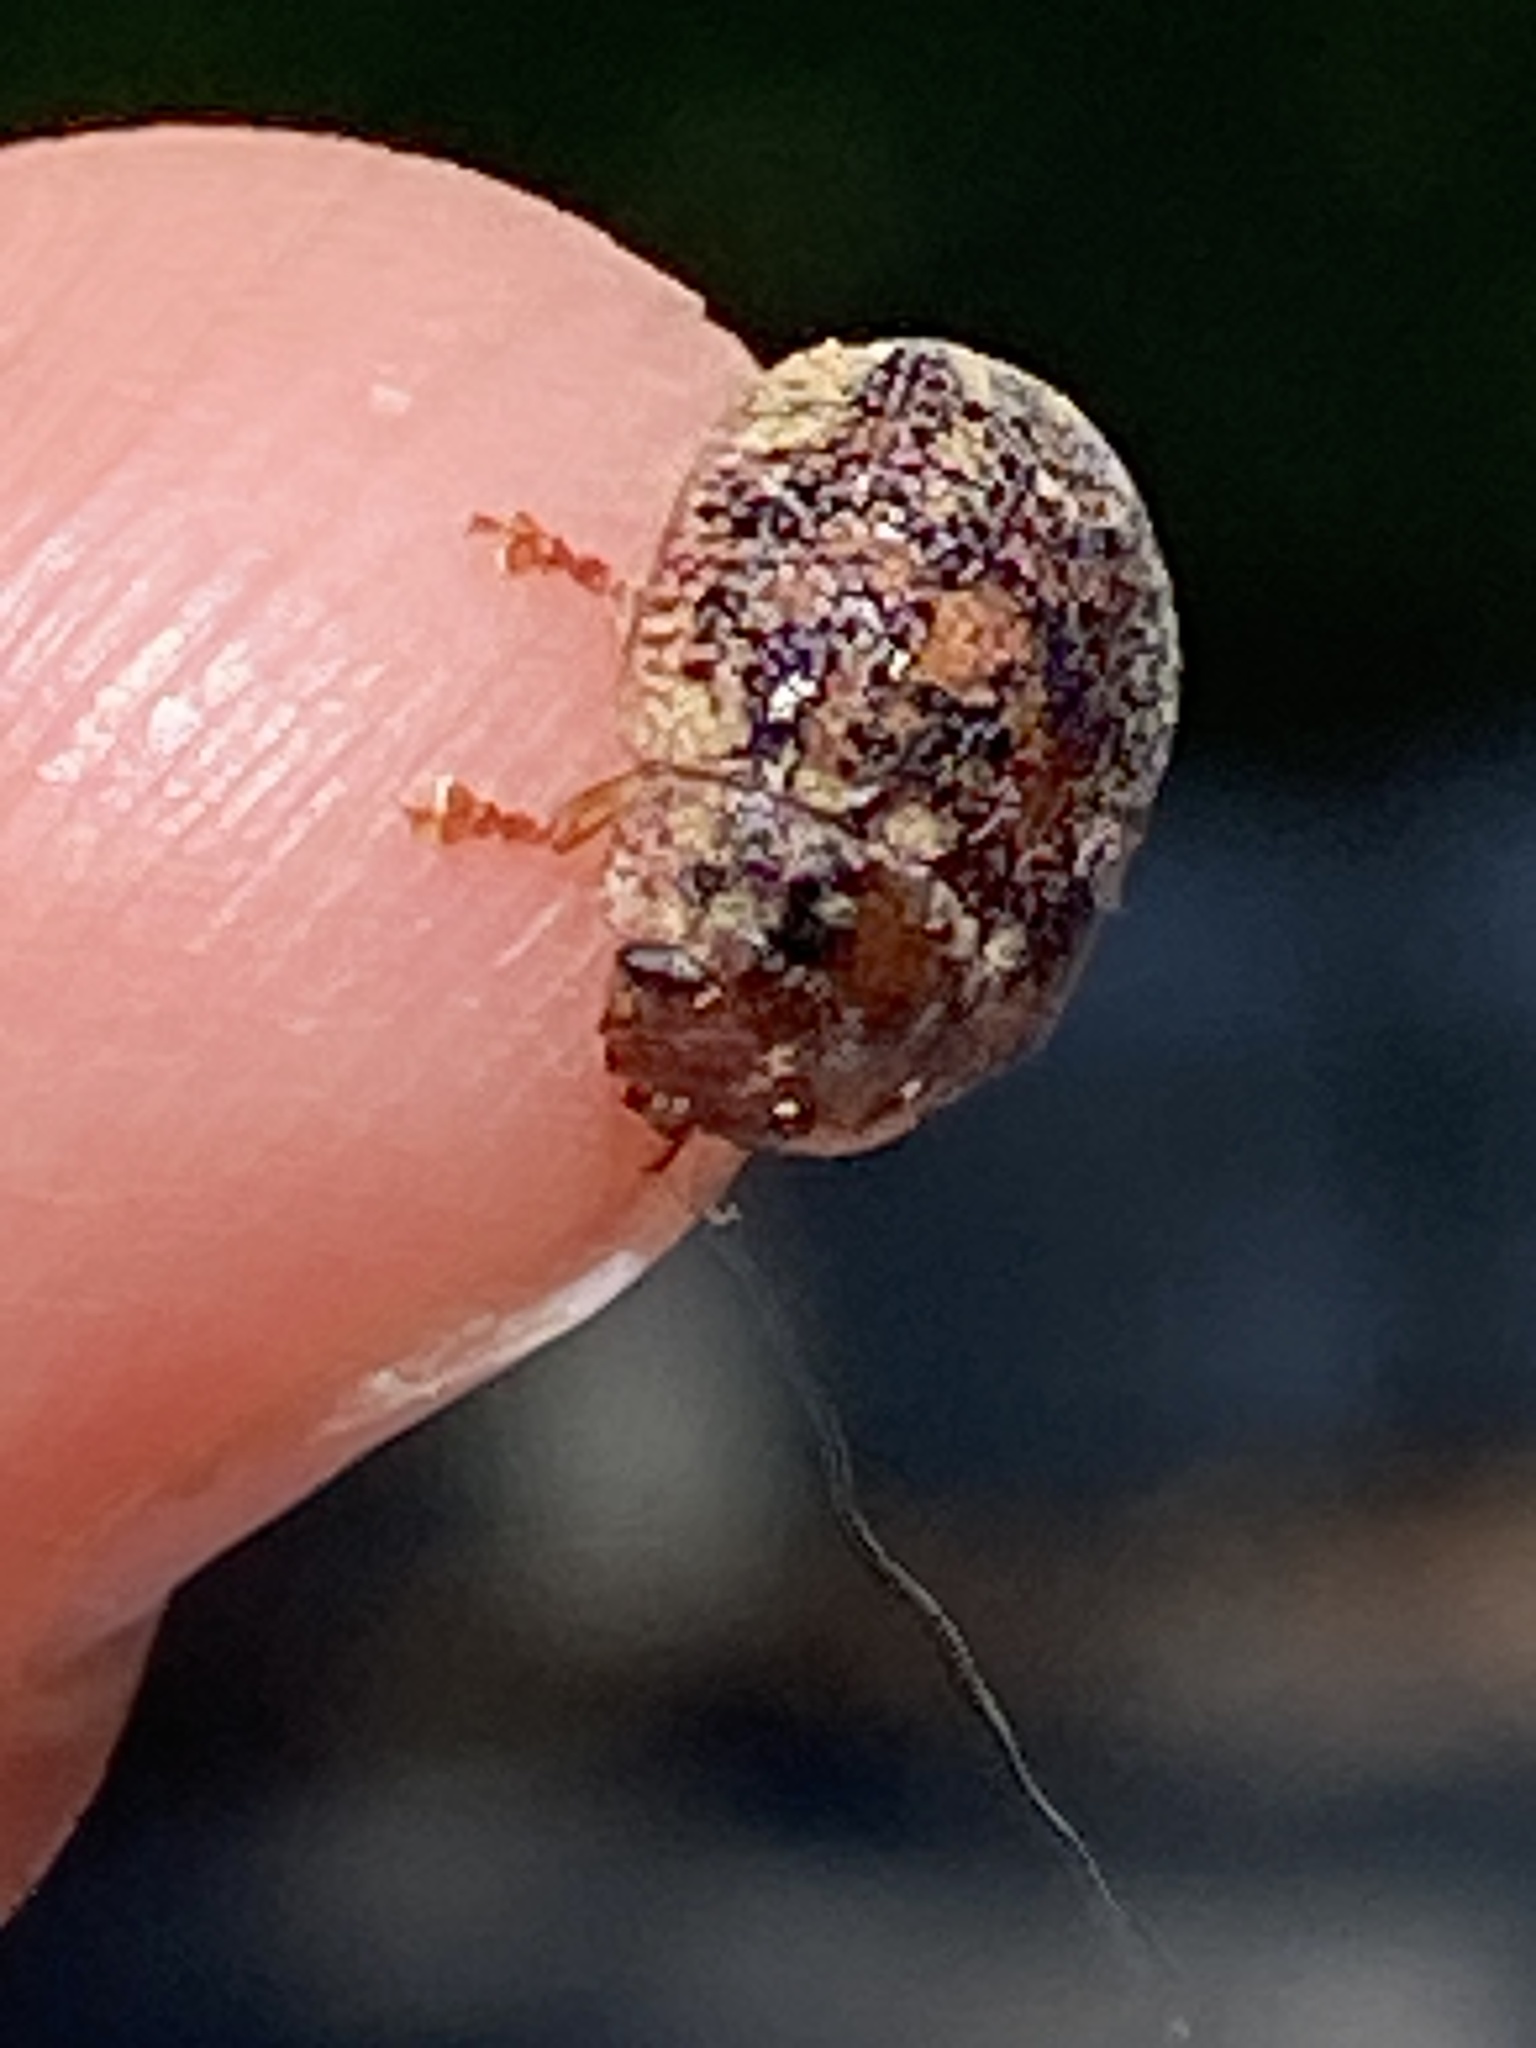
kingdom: Animalia
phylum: Arthropoda
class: Insecta
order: Coleoptera
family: Chrysomelidae
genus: Trachymela
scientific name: Trachymela sloanei
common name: Australian tortoise beetle
